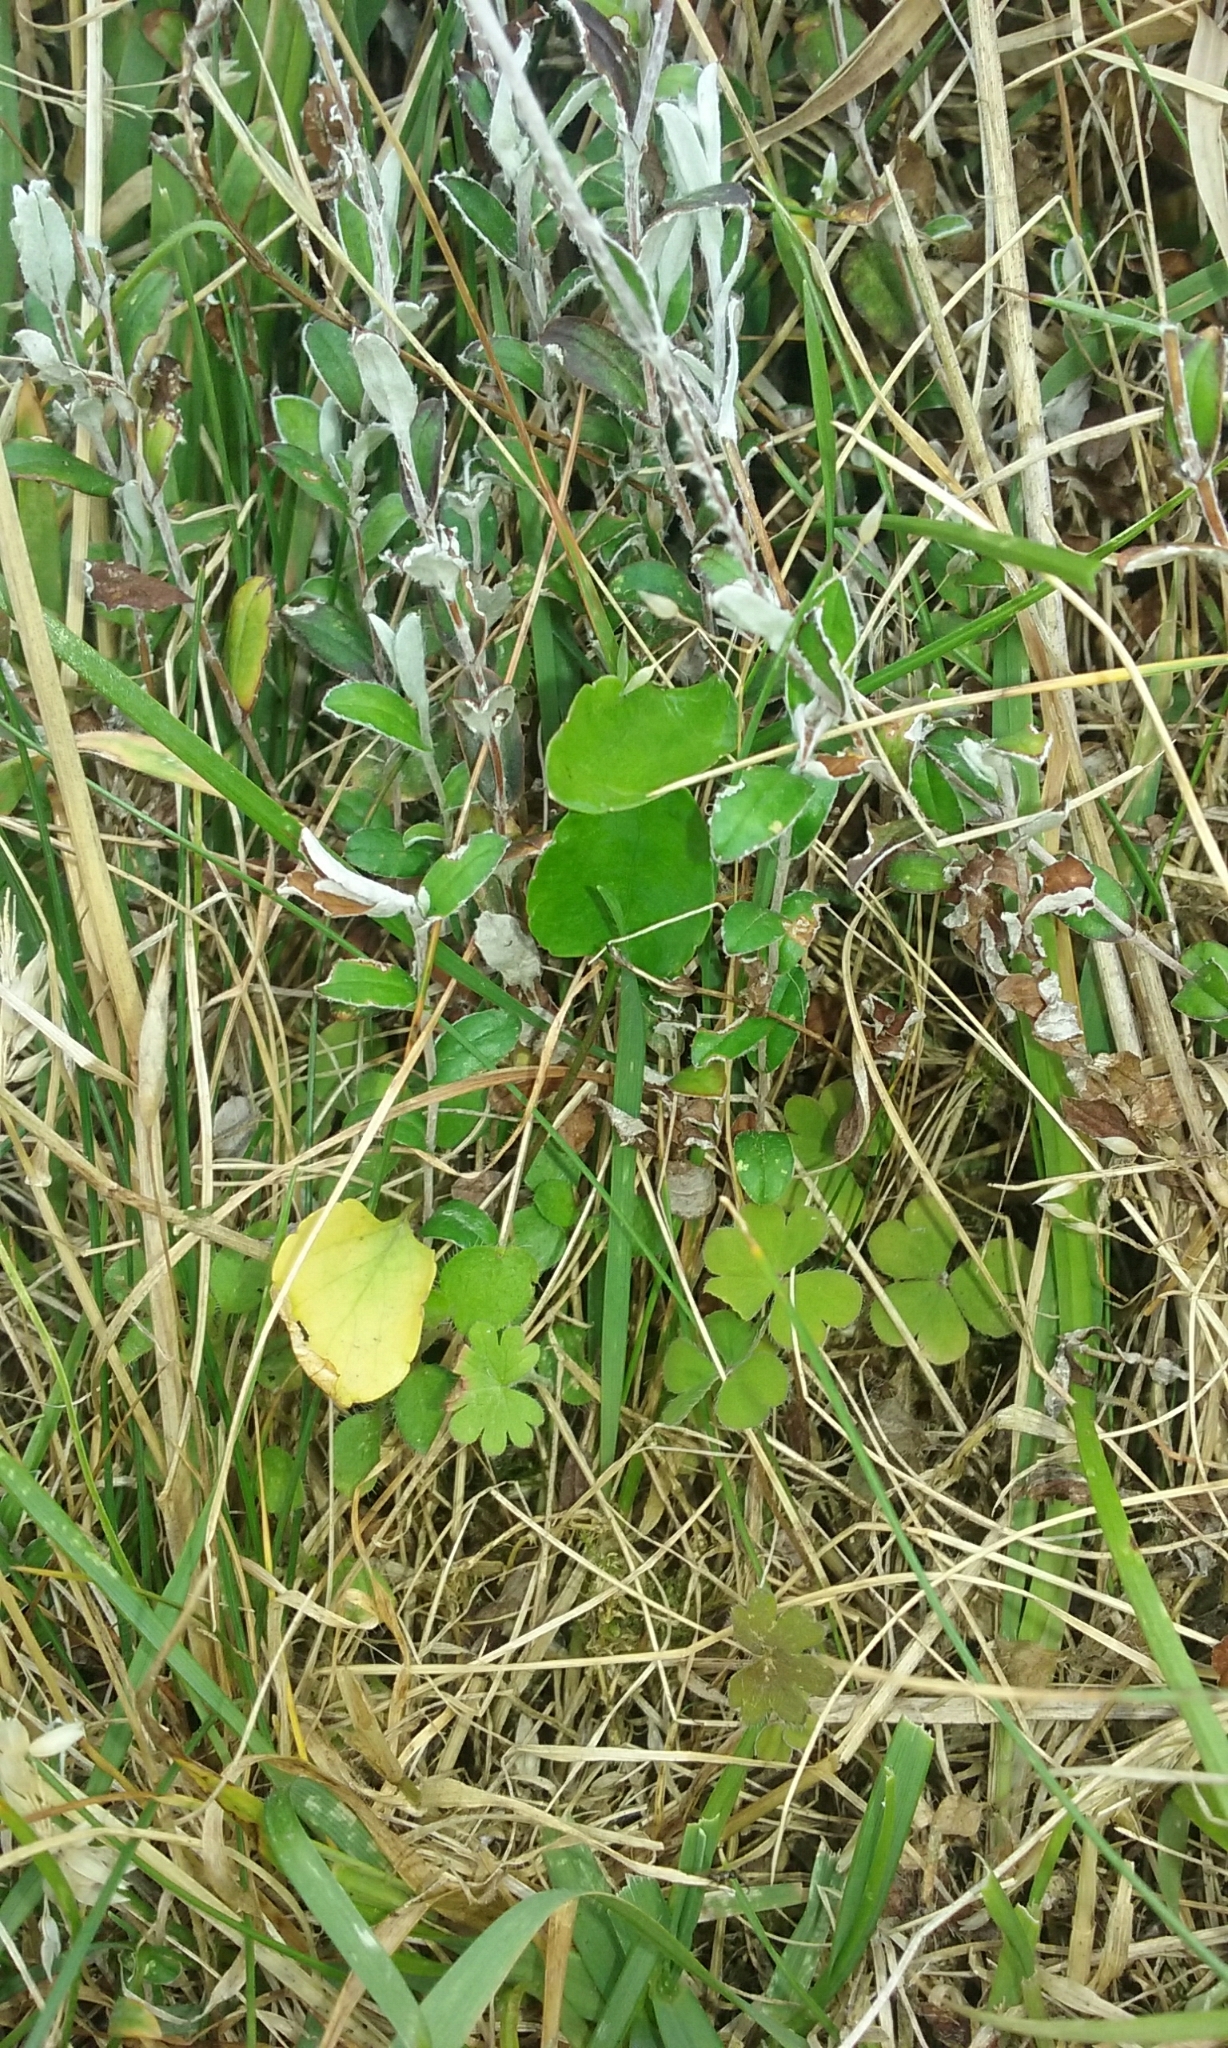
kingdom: Plantae
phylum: Tracheophyta
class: Magnoliopsida
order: Malpighiales
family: Violaceae
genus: Viola
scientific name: Viola cunninghamii
